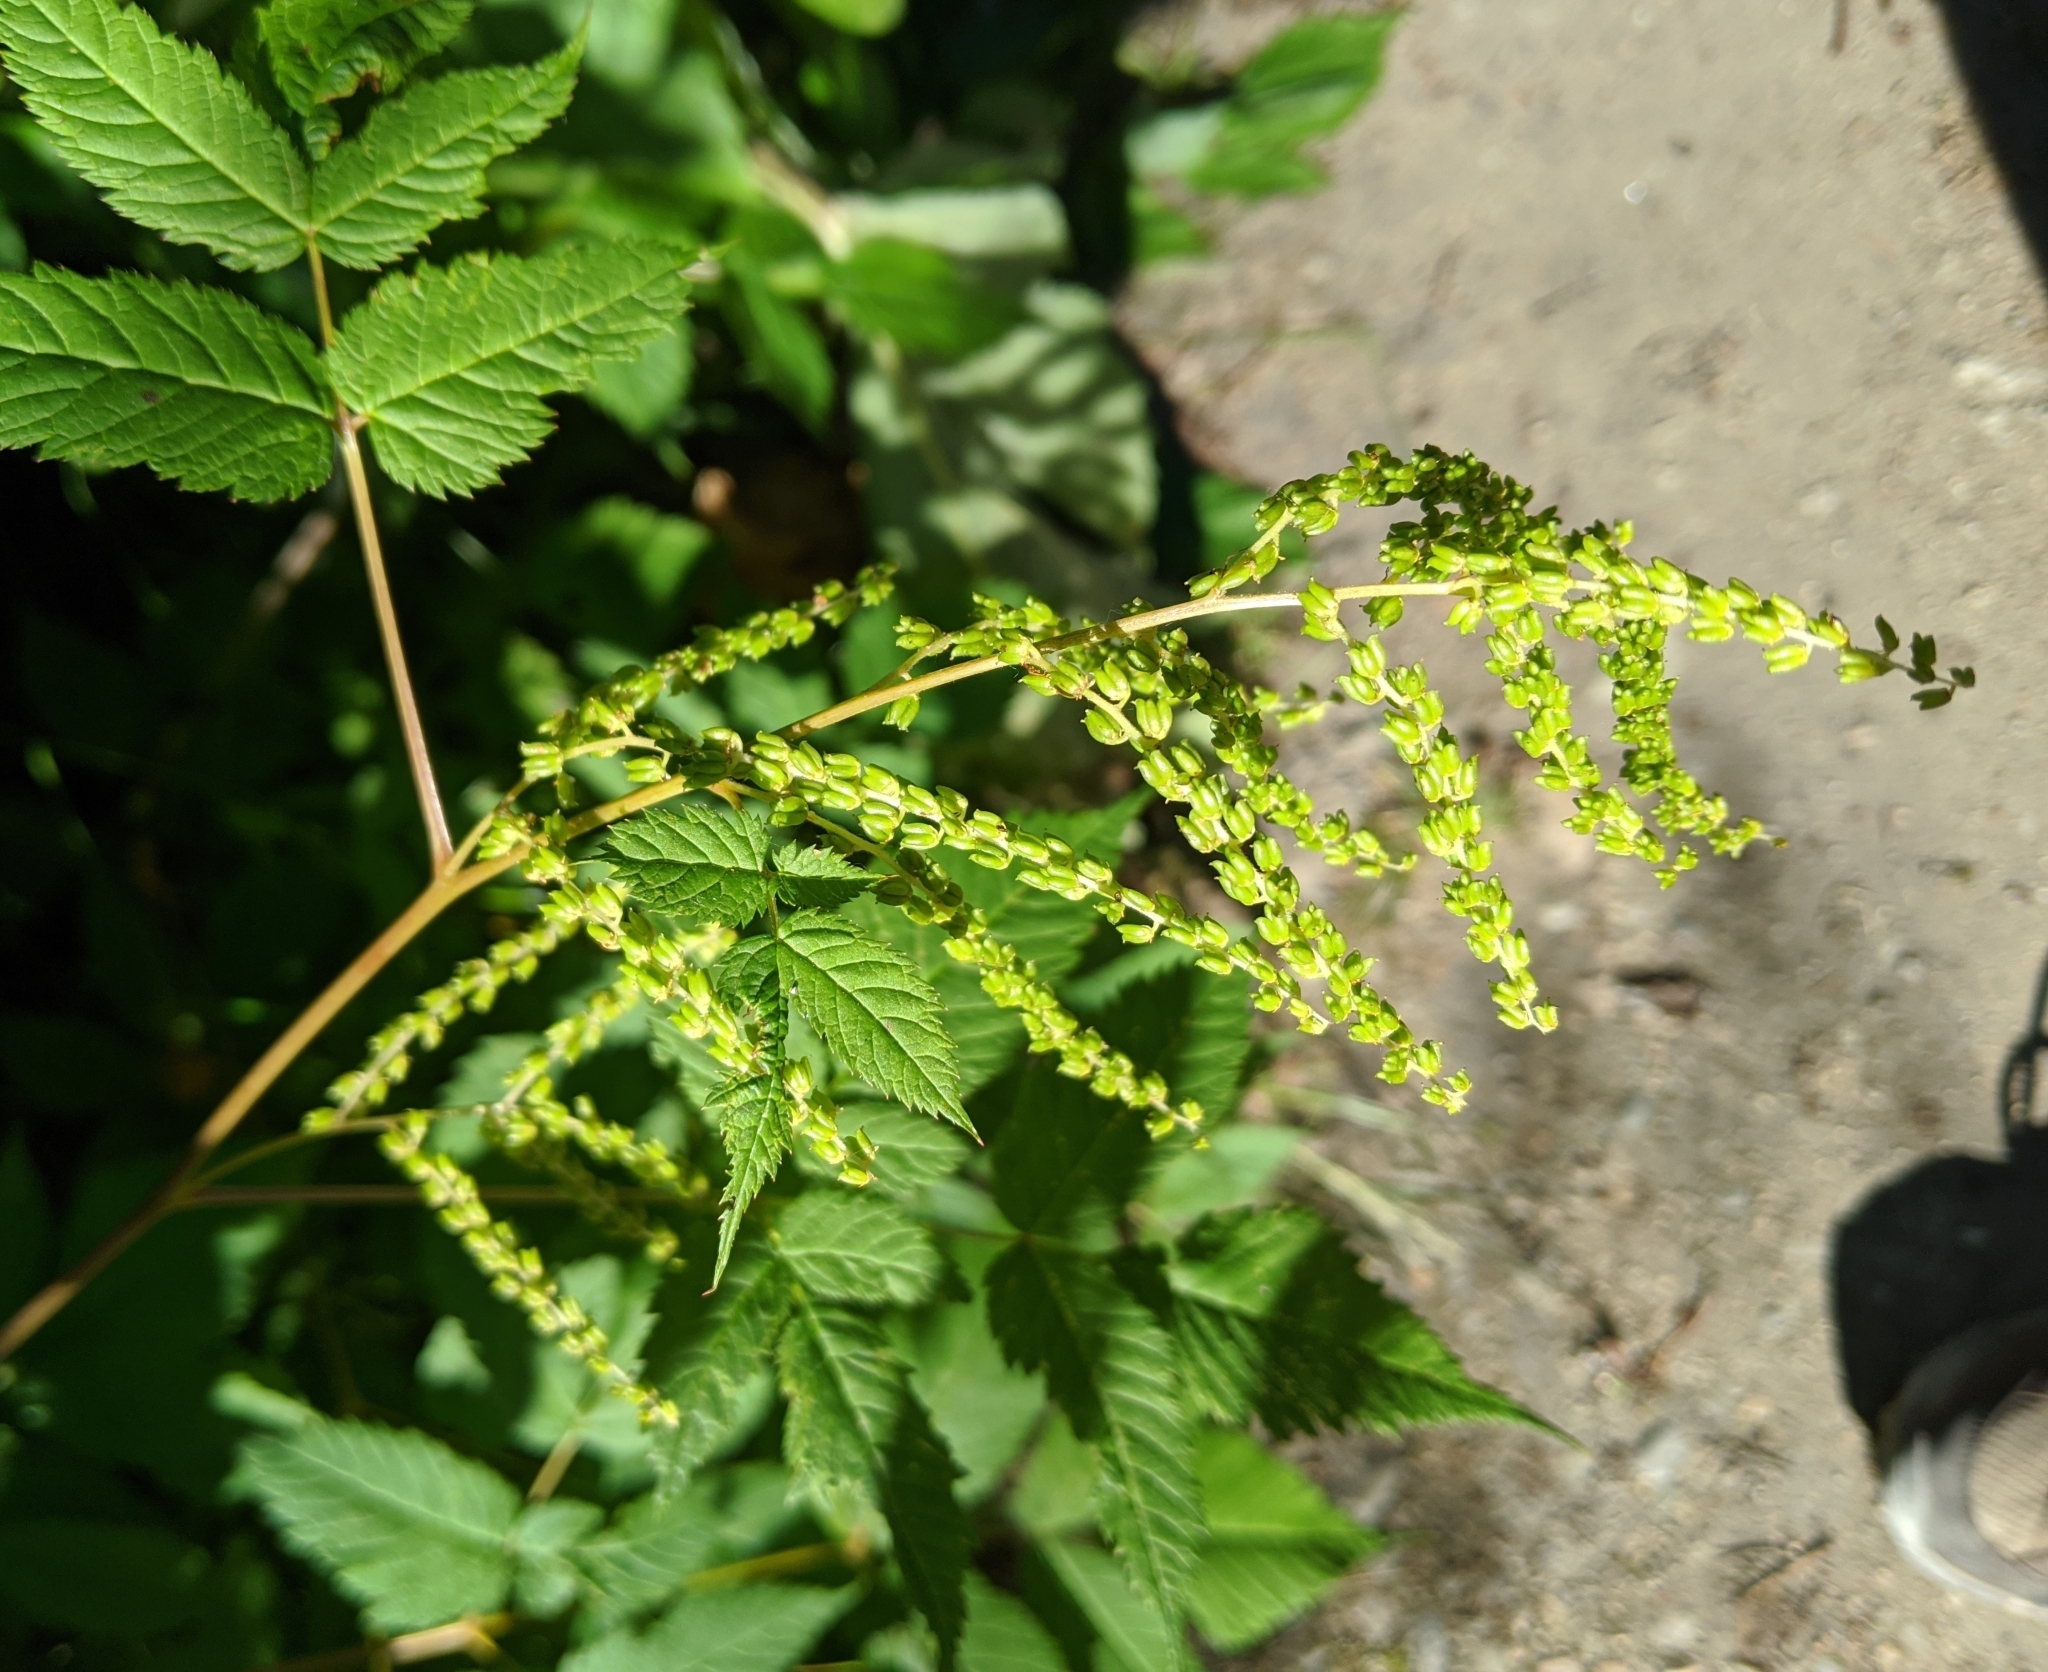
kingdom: Plantae
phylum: Tracheophyta
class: Magnoliopsida
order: Rosales
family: Rosaceae
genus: Aruncus
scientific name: Aruncus dioicus
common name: Buck's-beard
